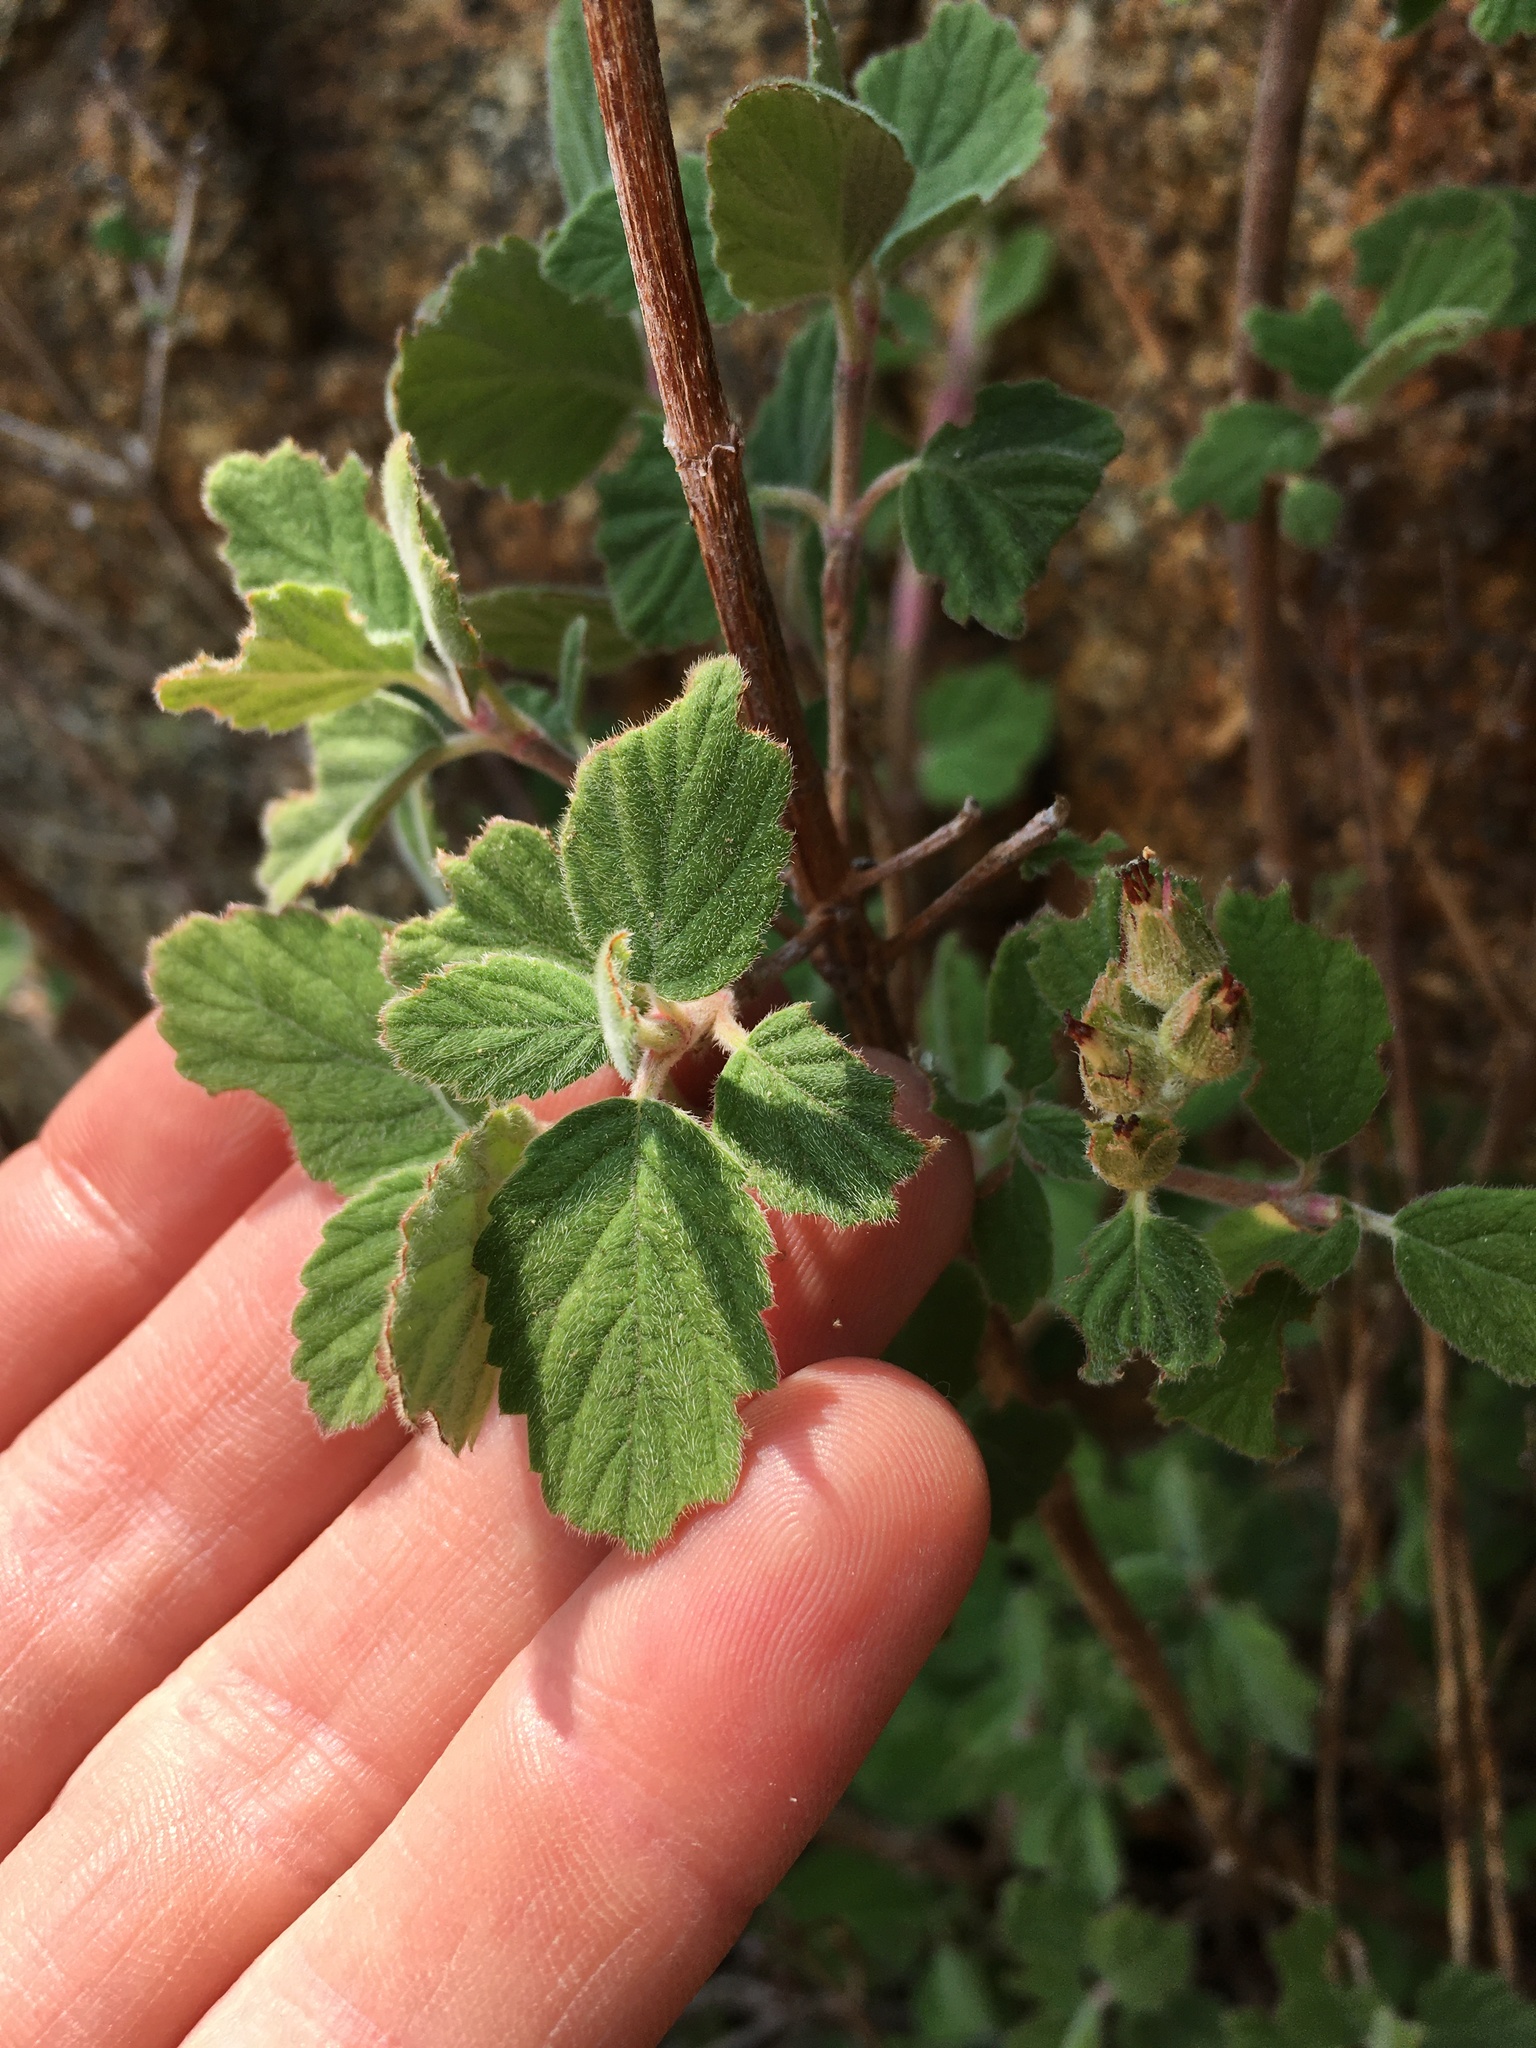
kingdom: Plantae
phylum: Tracheophyta
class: Magnoliopsida
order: Cornales
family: Hydrangeaceae
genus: Jamesia
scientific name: Jamesia americana
